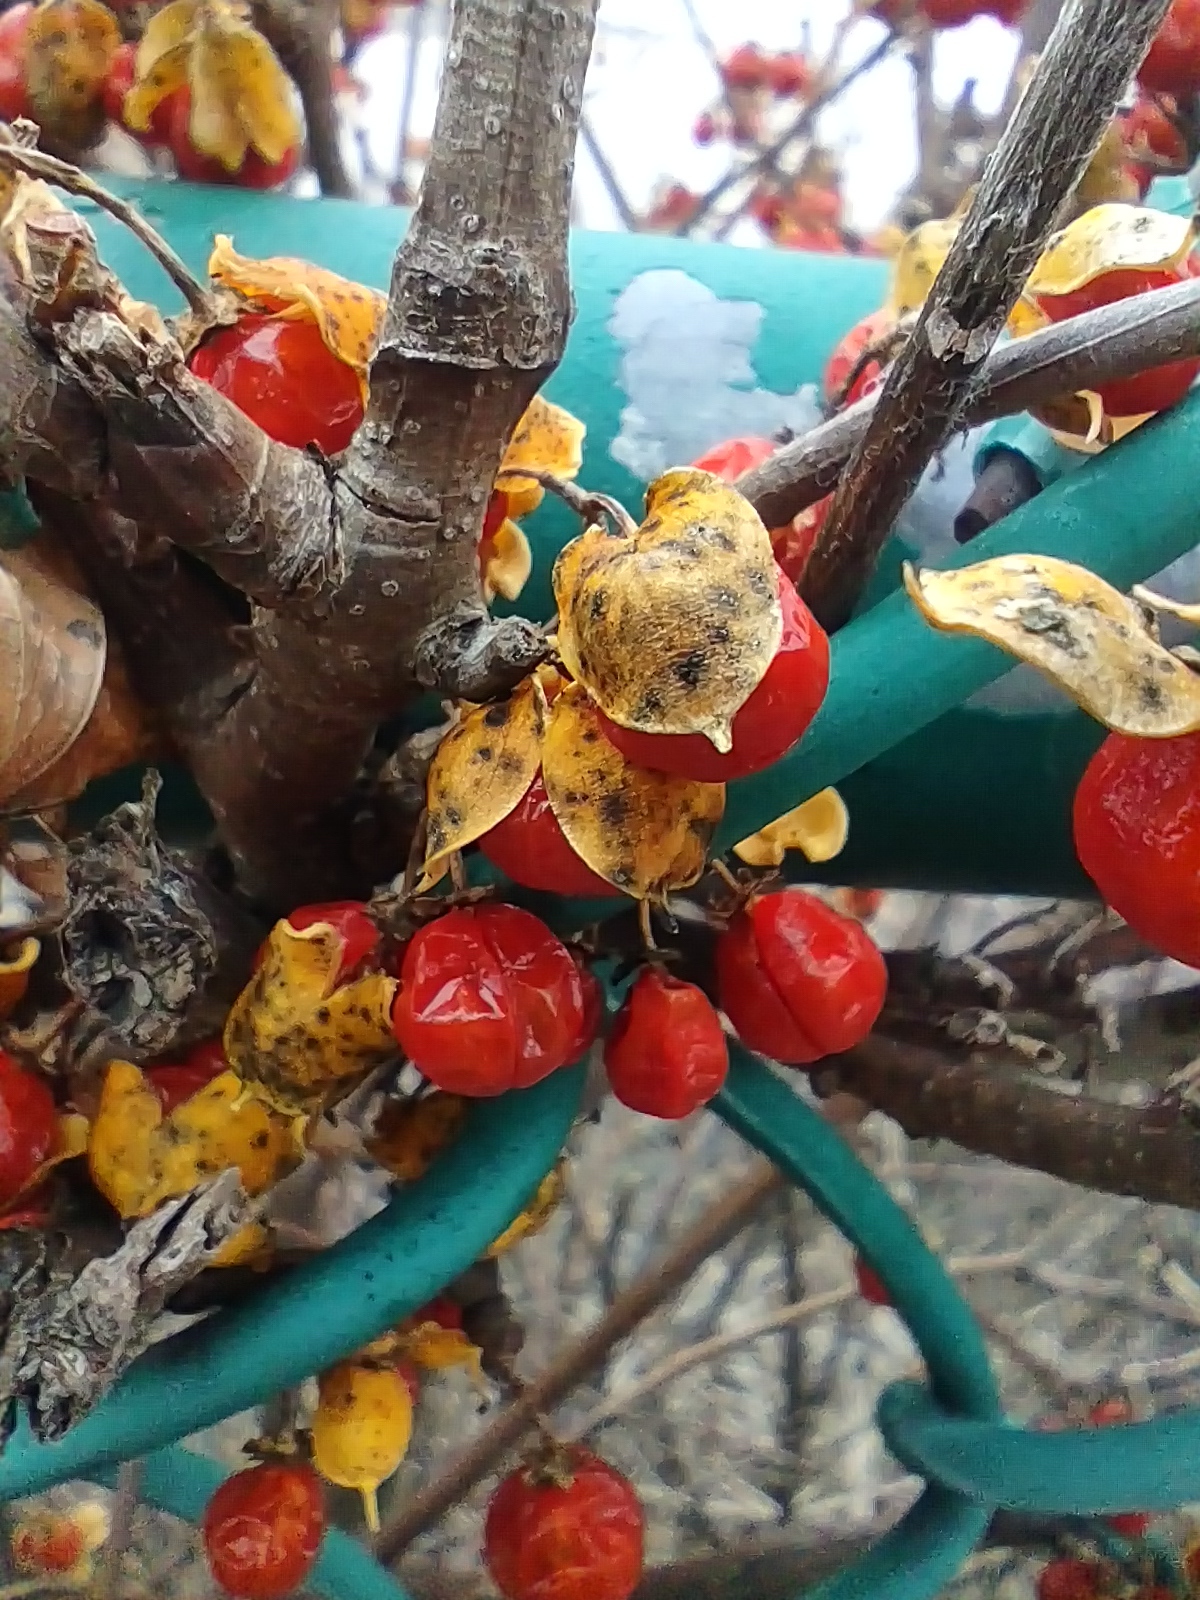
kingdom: Plantae
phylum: Tracheophyta
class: Magnoliopsida
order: Celastrales
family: Celastraceae
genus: Celastrus
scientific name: Celastrus orbiculatus
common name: Oriental bittersweet
